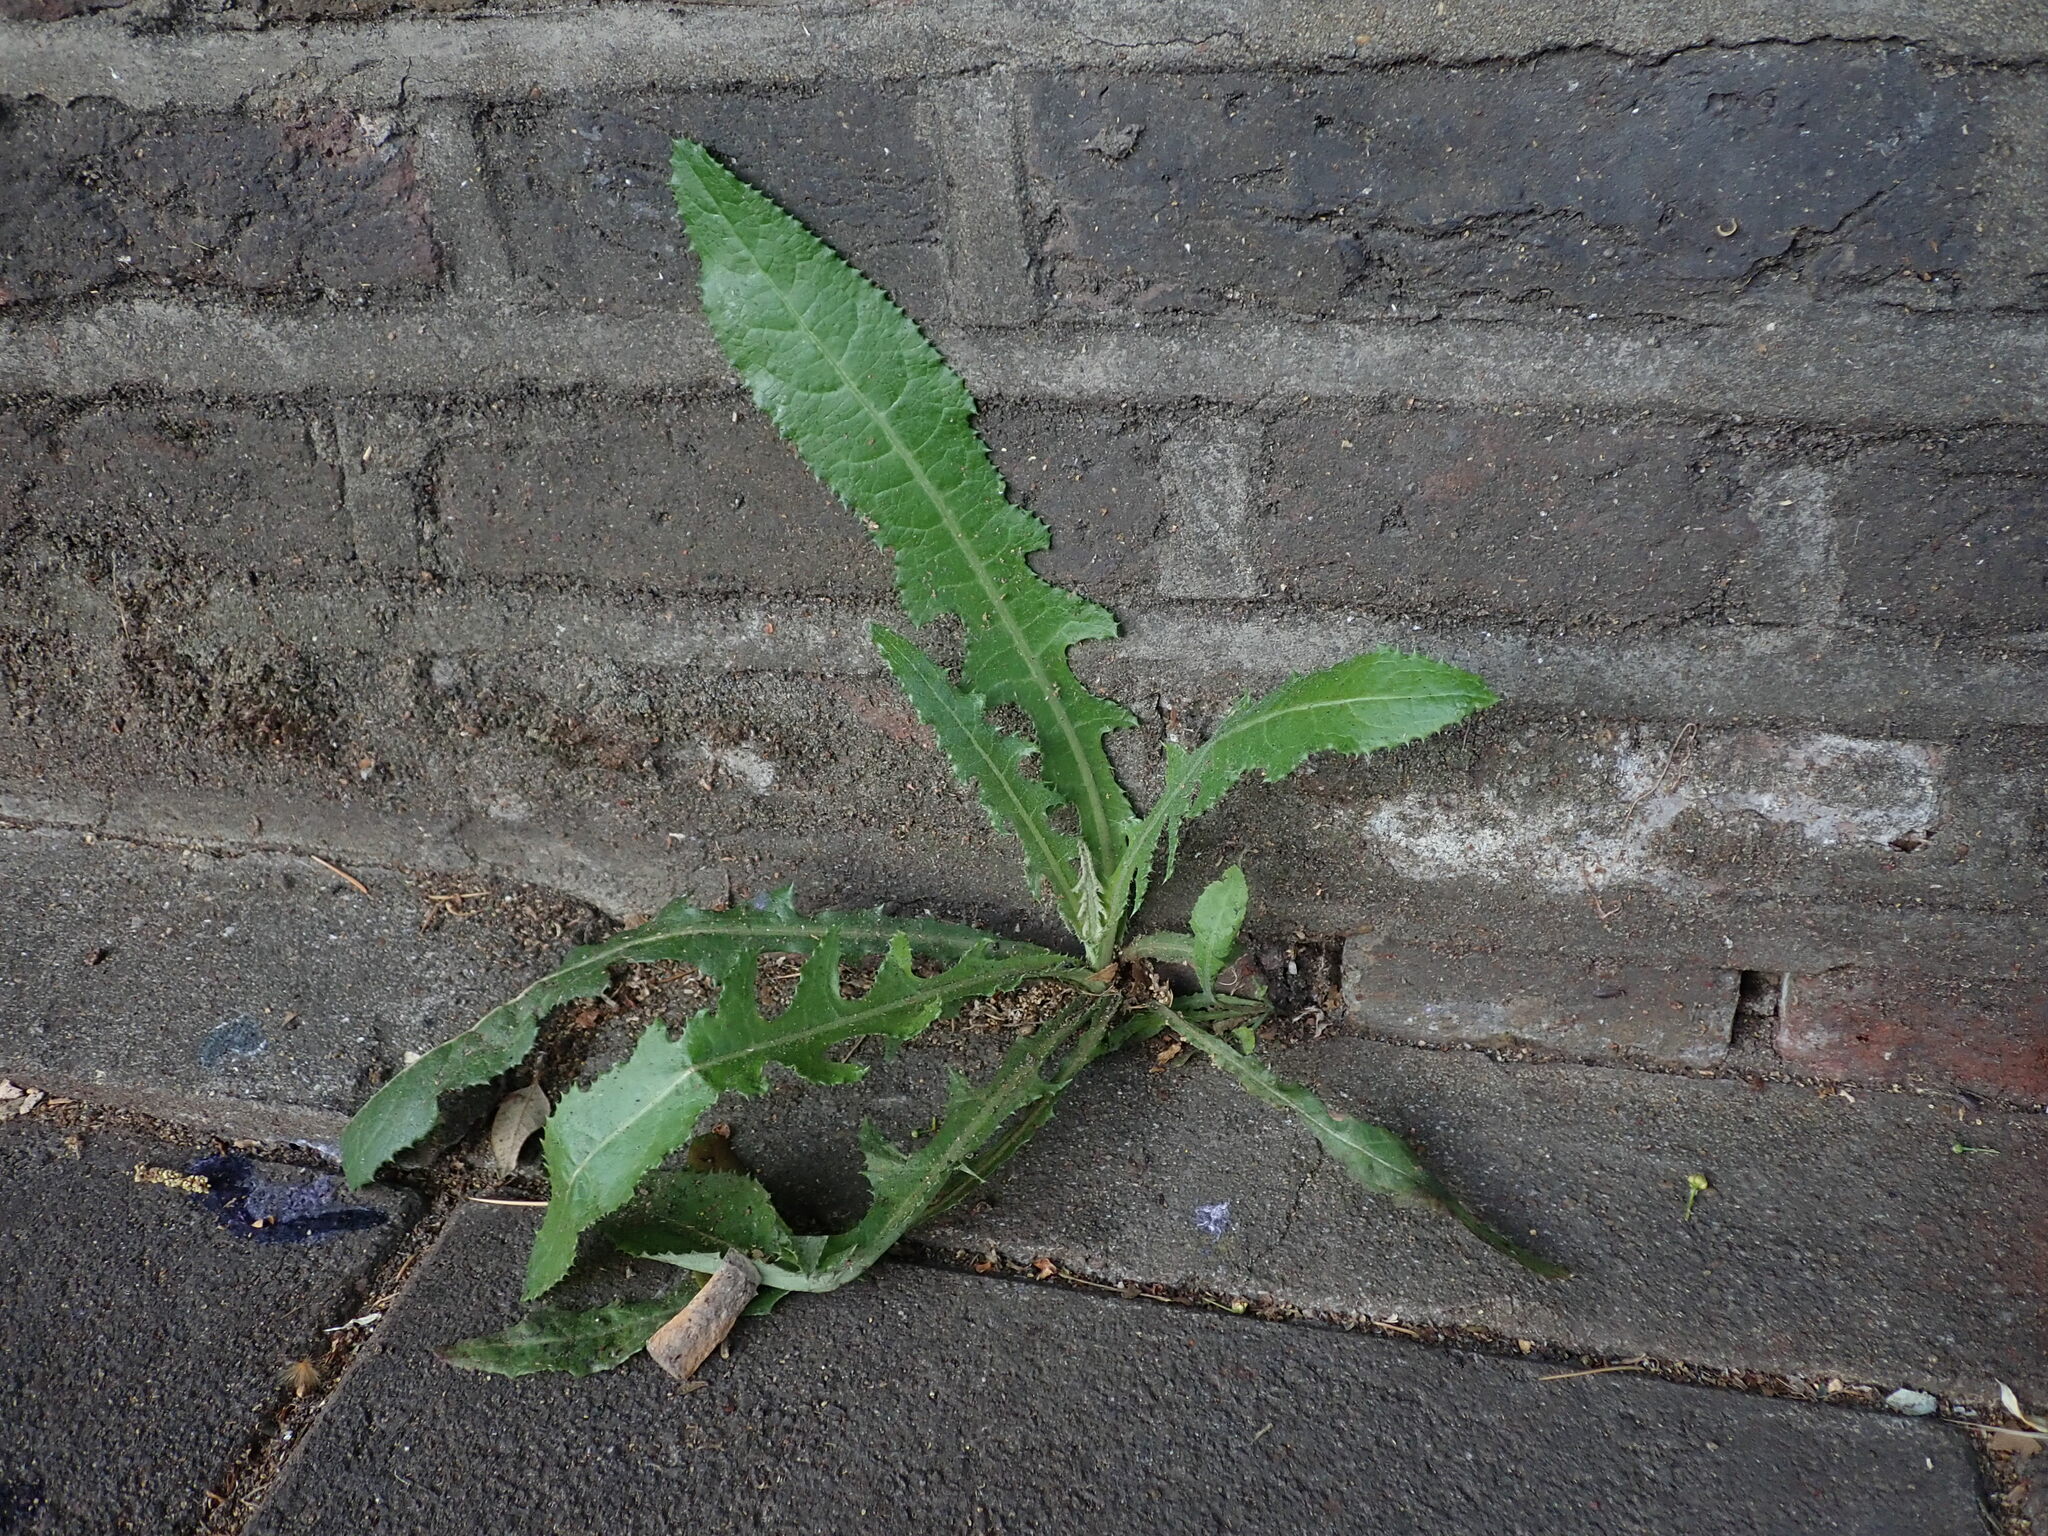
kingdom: Plantae
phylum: Tracheophyta
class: Magnoliopsida
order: Asterales
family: Asteraceae
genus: Sonchus
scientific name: Sonchus arvensis
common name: Perennial sow-thistle
